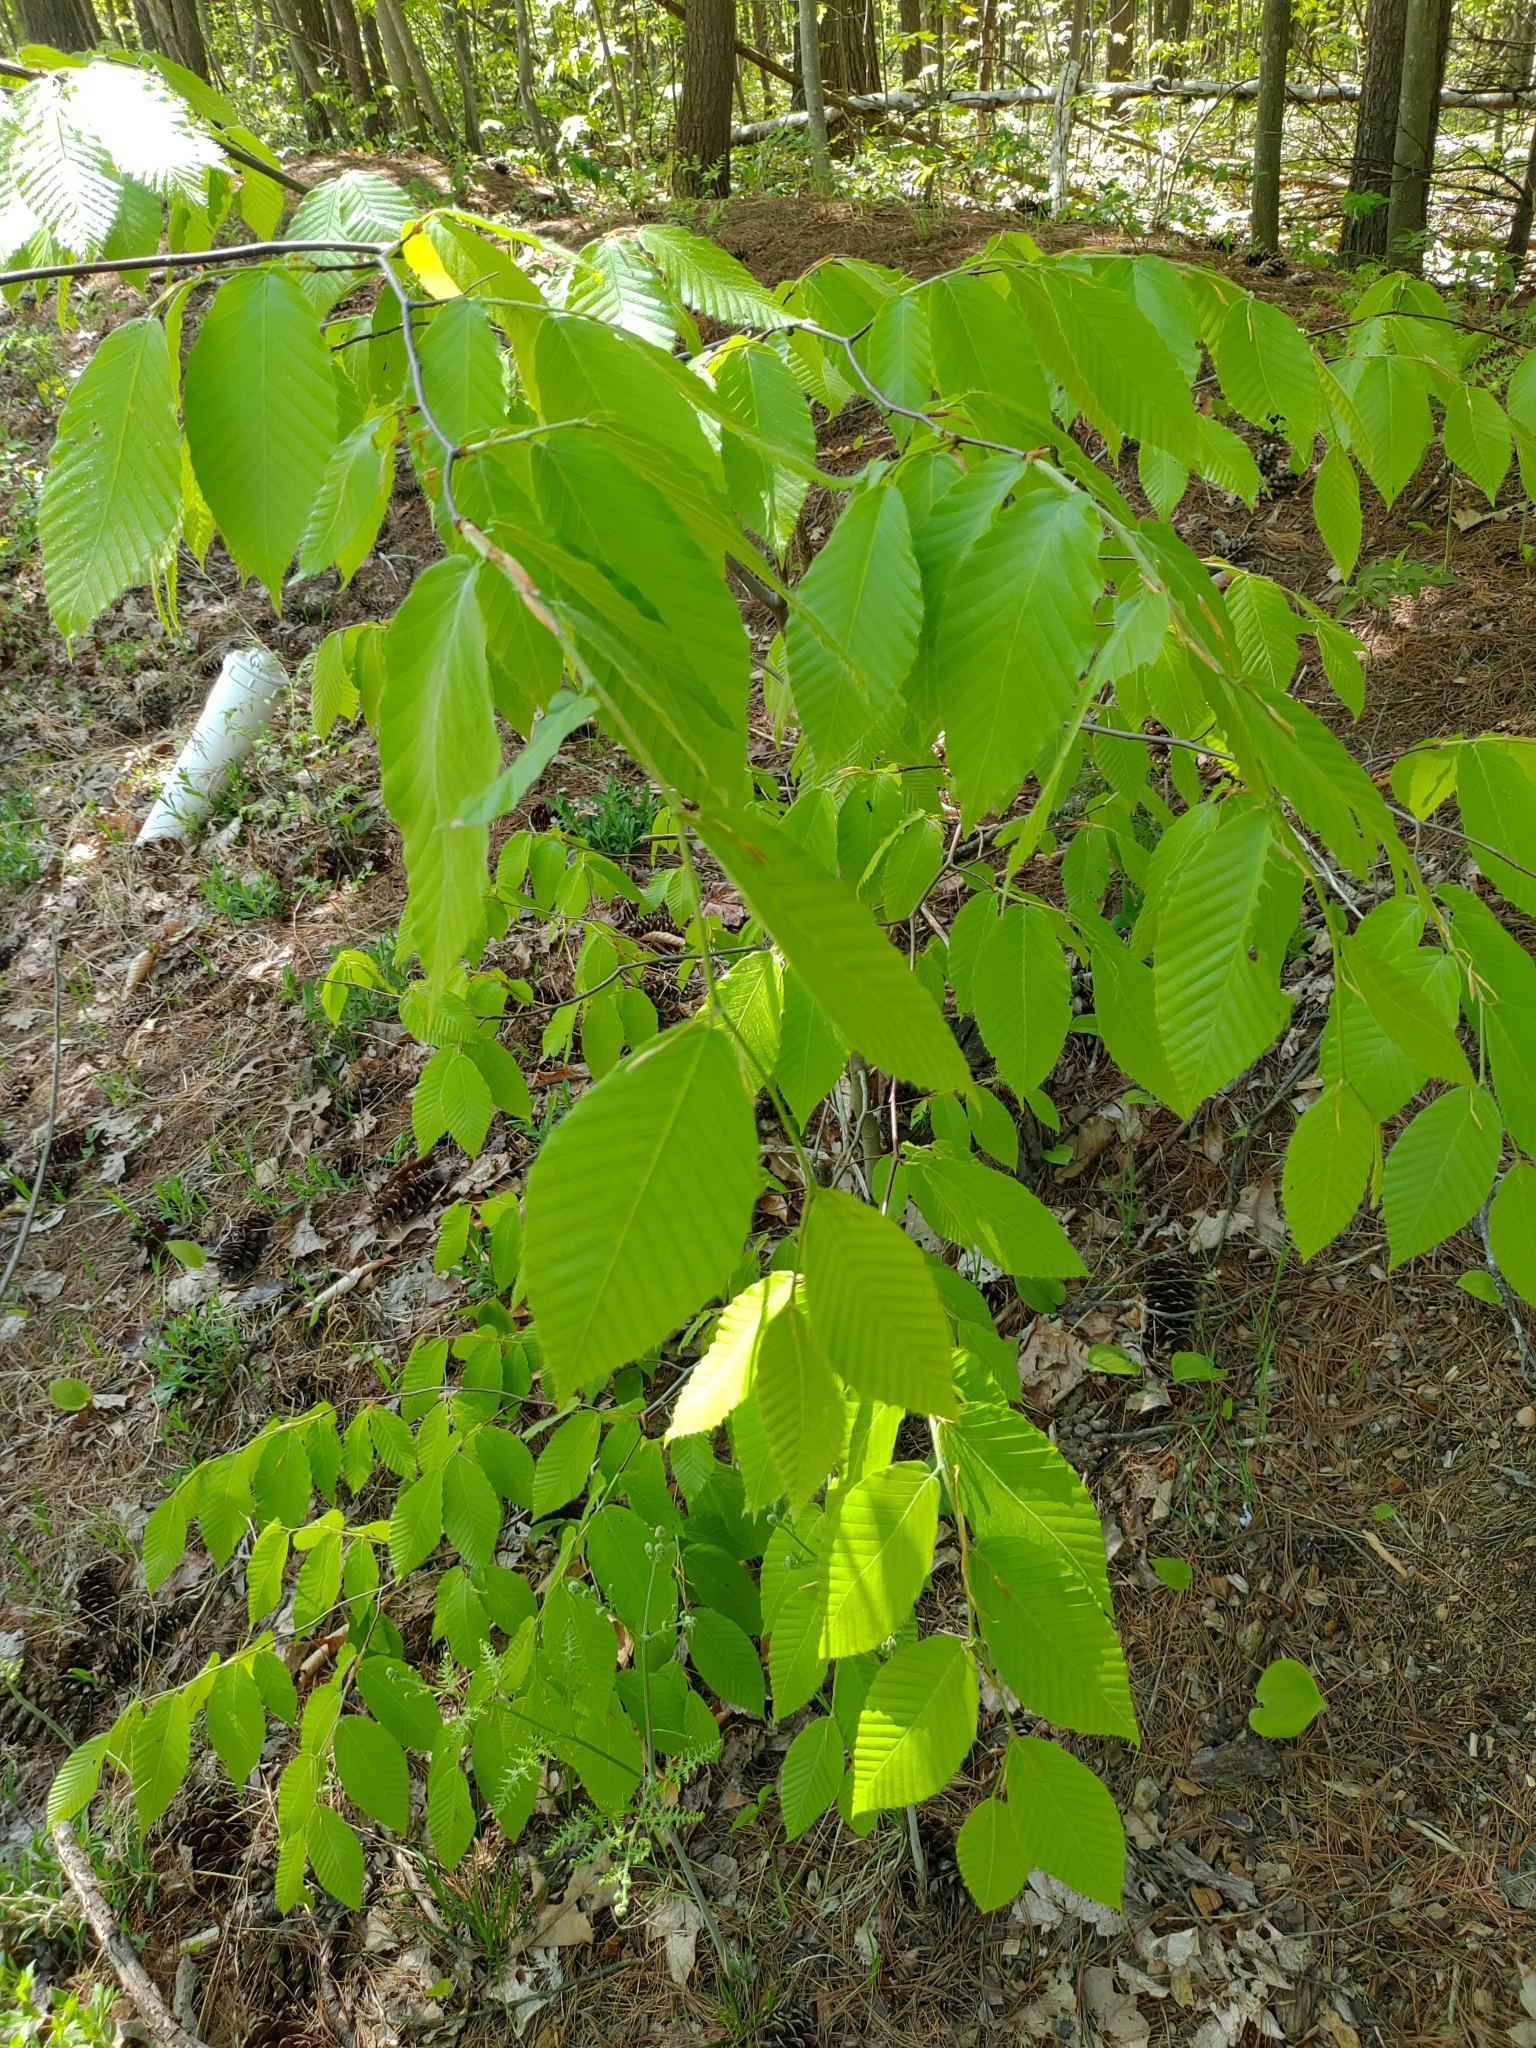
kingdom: Plantae
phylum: Tracheophyta
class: Magnoliopsida
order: Fagales
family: Fagaceae
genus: Fagus
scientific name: Fagus grandifolia
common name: American beech
